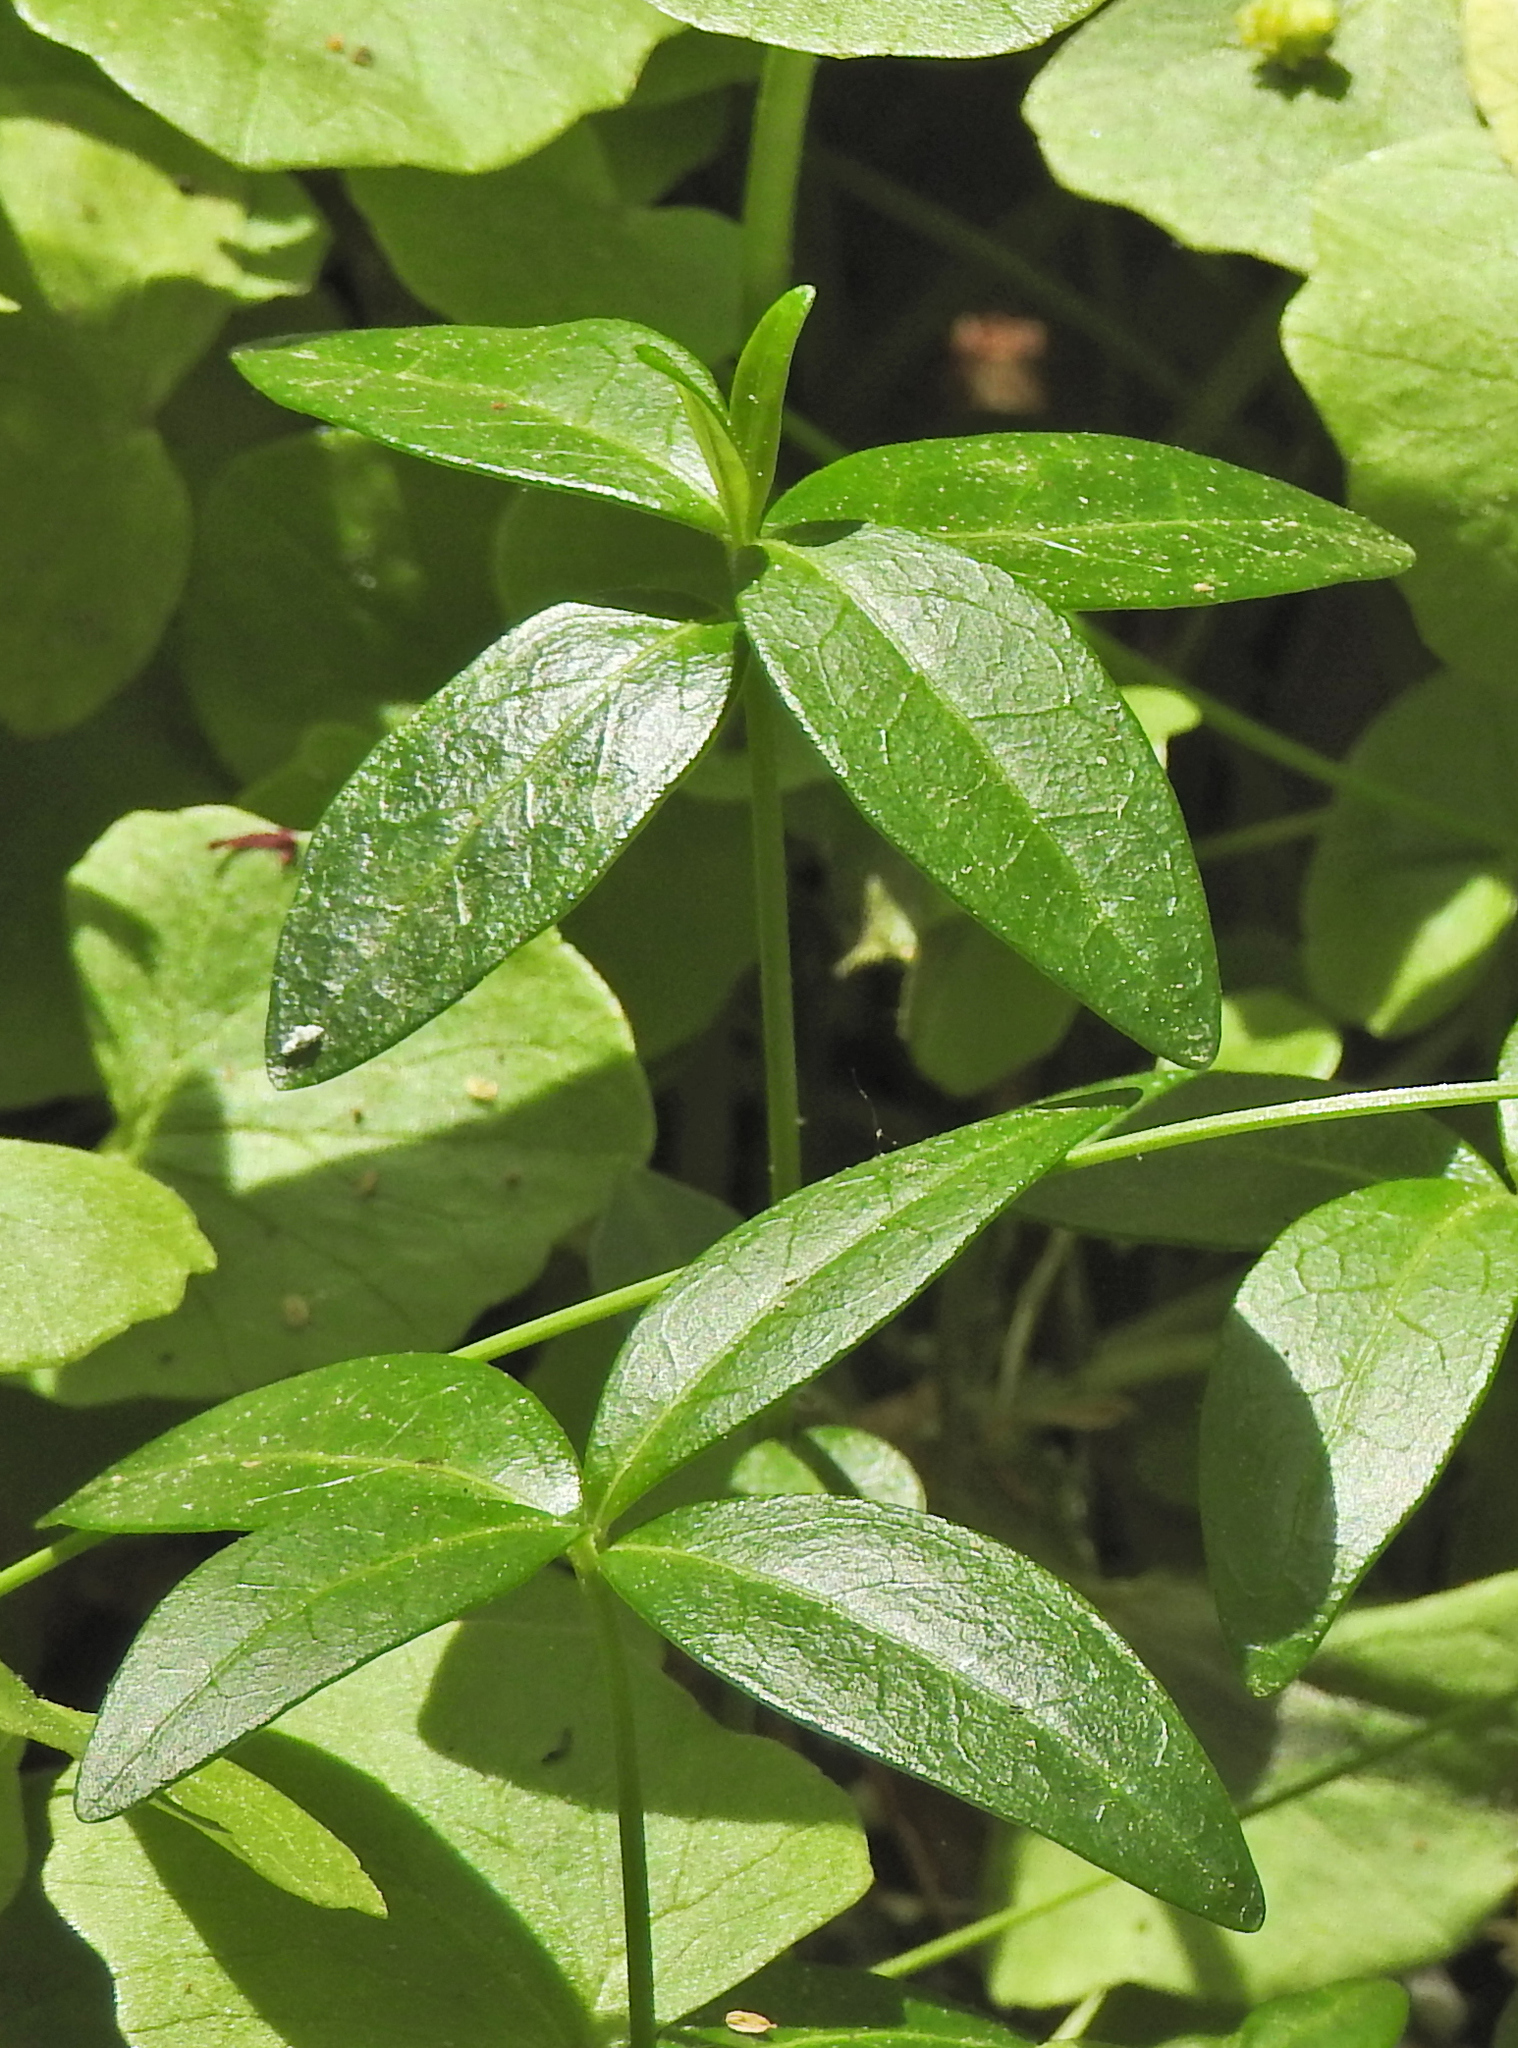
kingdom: Plantae
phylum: Tracheophyta
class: Magnoliopsida
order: Gentianales
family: Apocynaceae
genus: Vinca
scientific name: Vinca minor
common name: Lesser periwinkle
